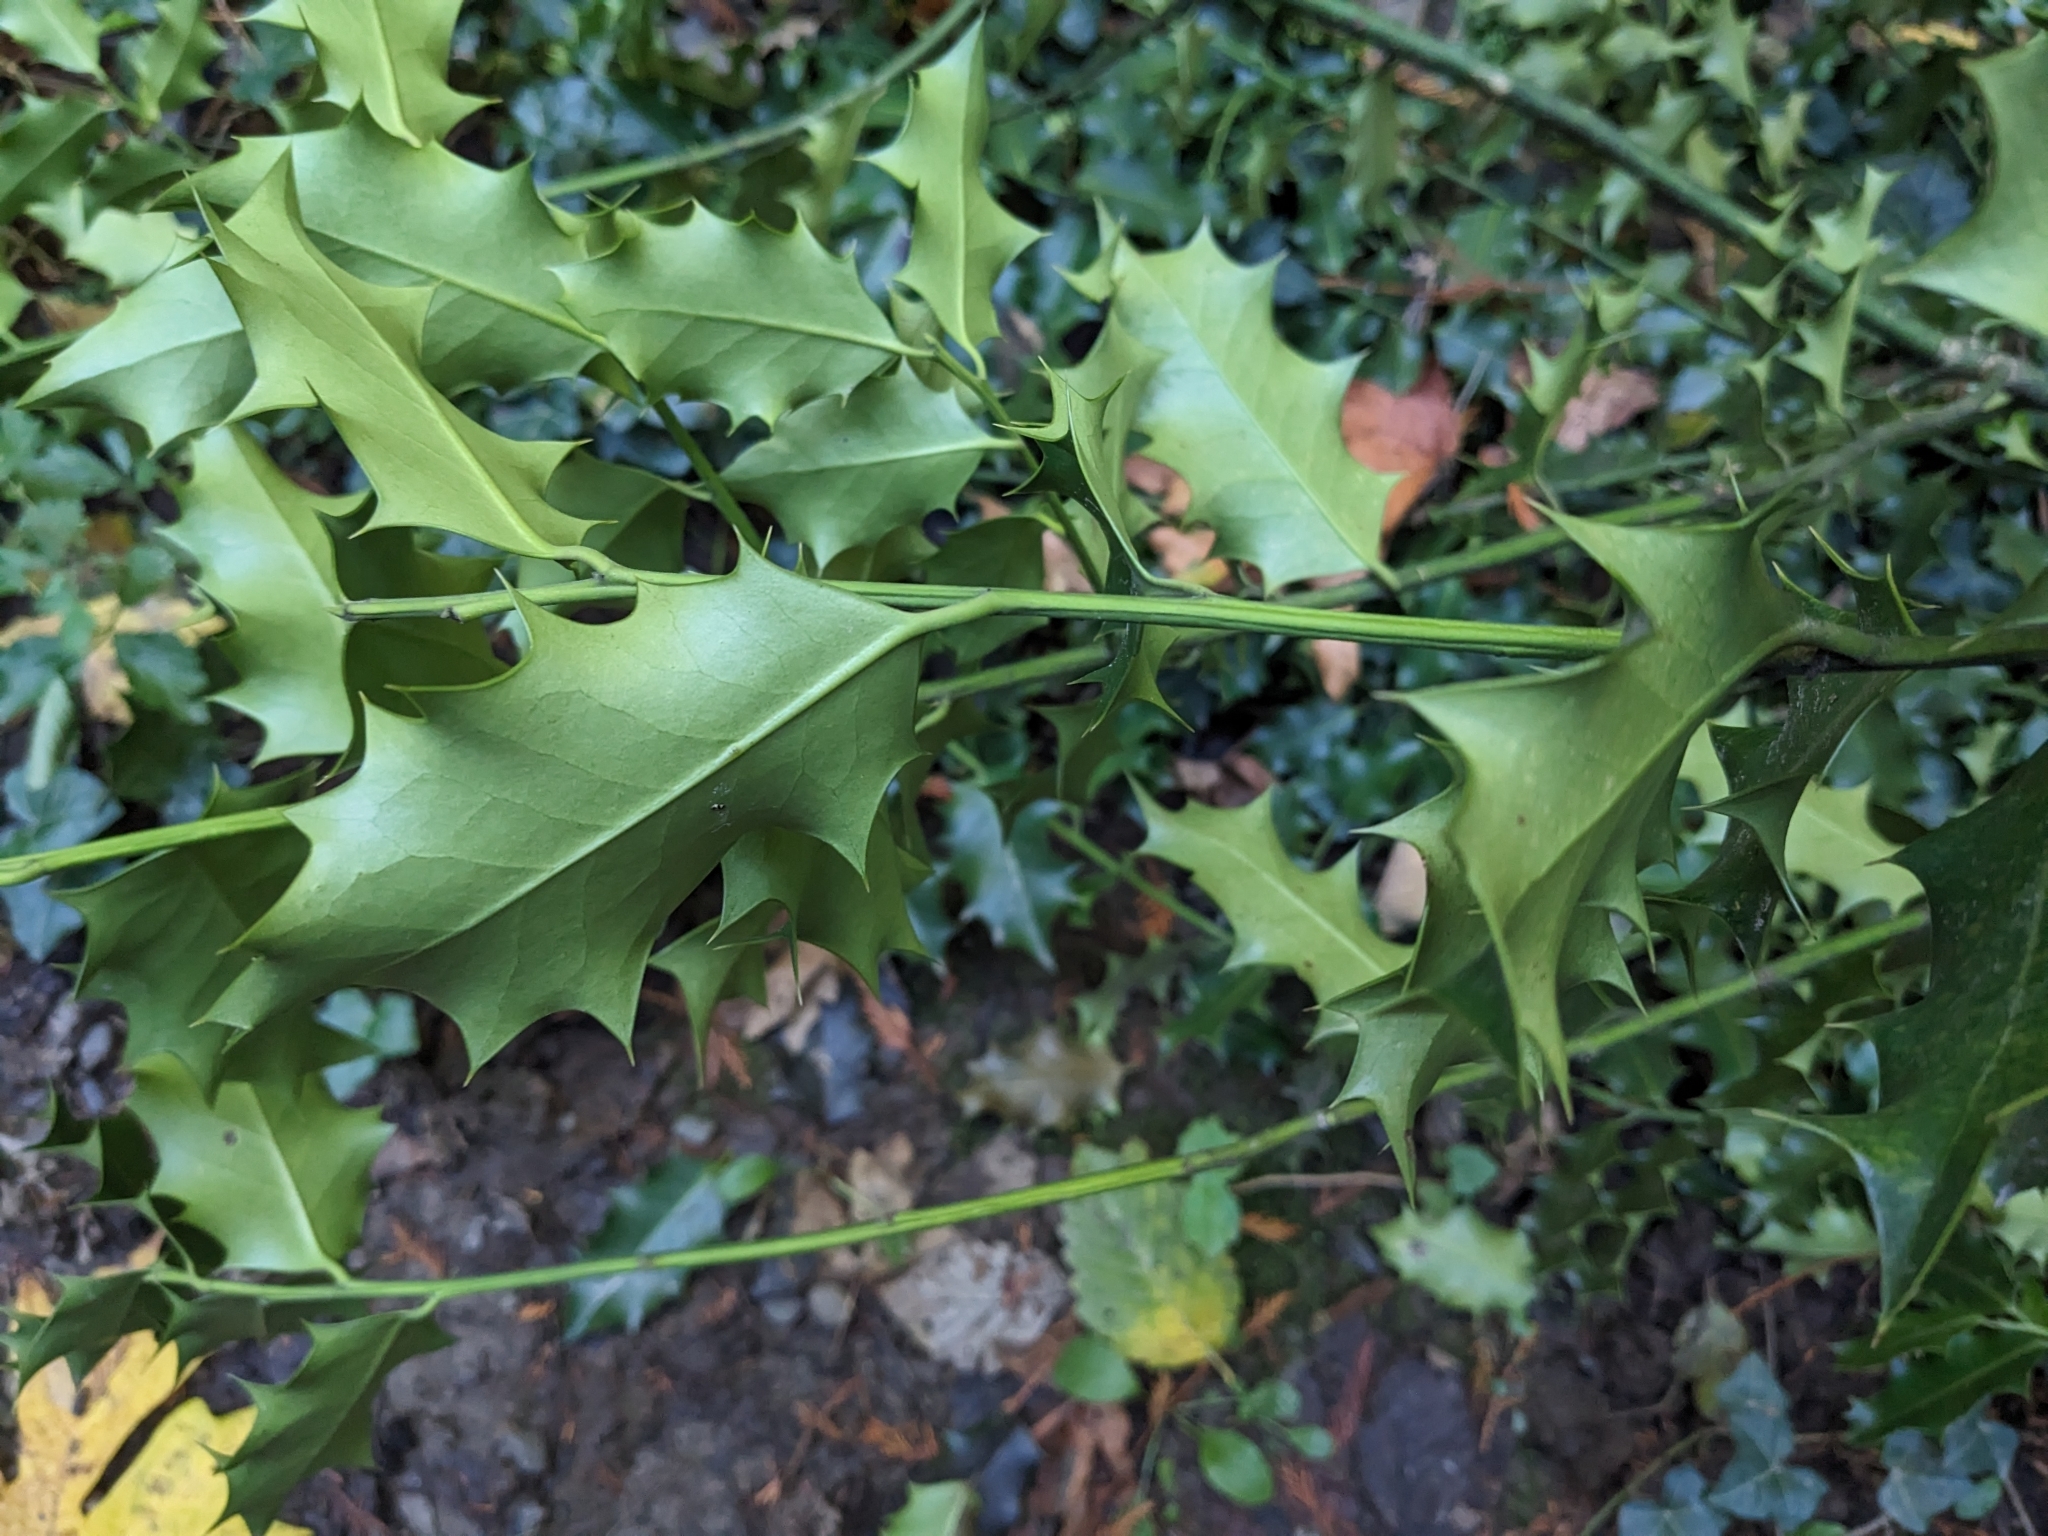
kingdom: Plantae
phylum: Tracheophyta
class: Magnoliopsida
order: Aquifoliales
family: Aquifoliaceae
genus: Ilex
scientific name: Ilex aquifolium
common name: English holly
